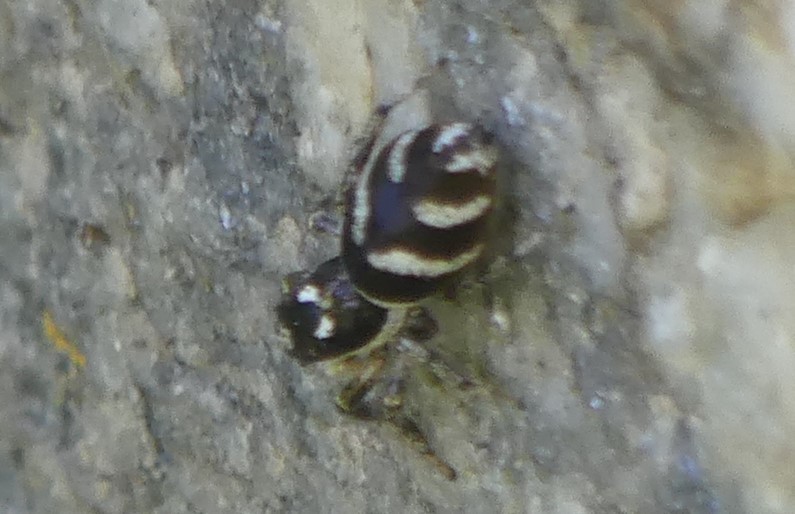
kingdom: Animalia
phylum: Arthropoda
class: Arachnida
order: Araneae
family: Salticidae
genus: Salticus
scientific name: Salticus scenicus
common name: Zebra jumper
